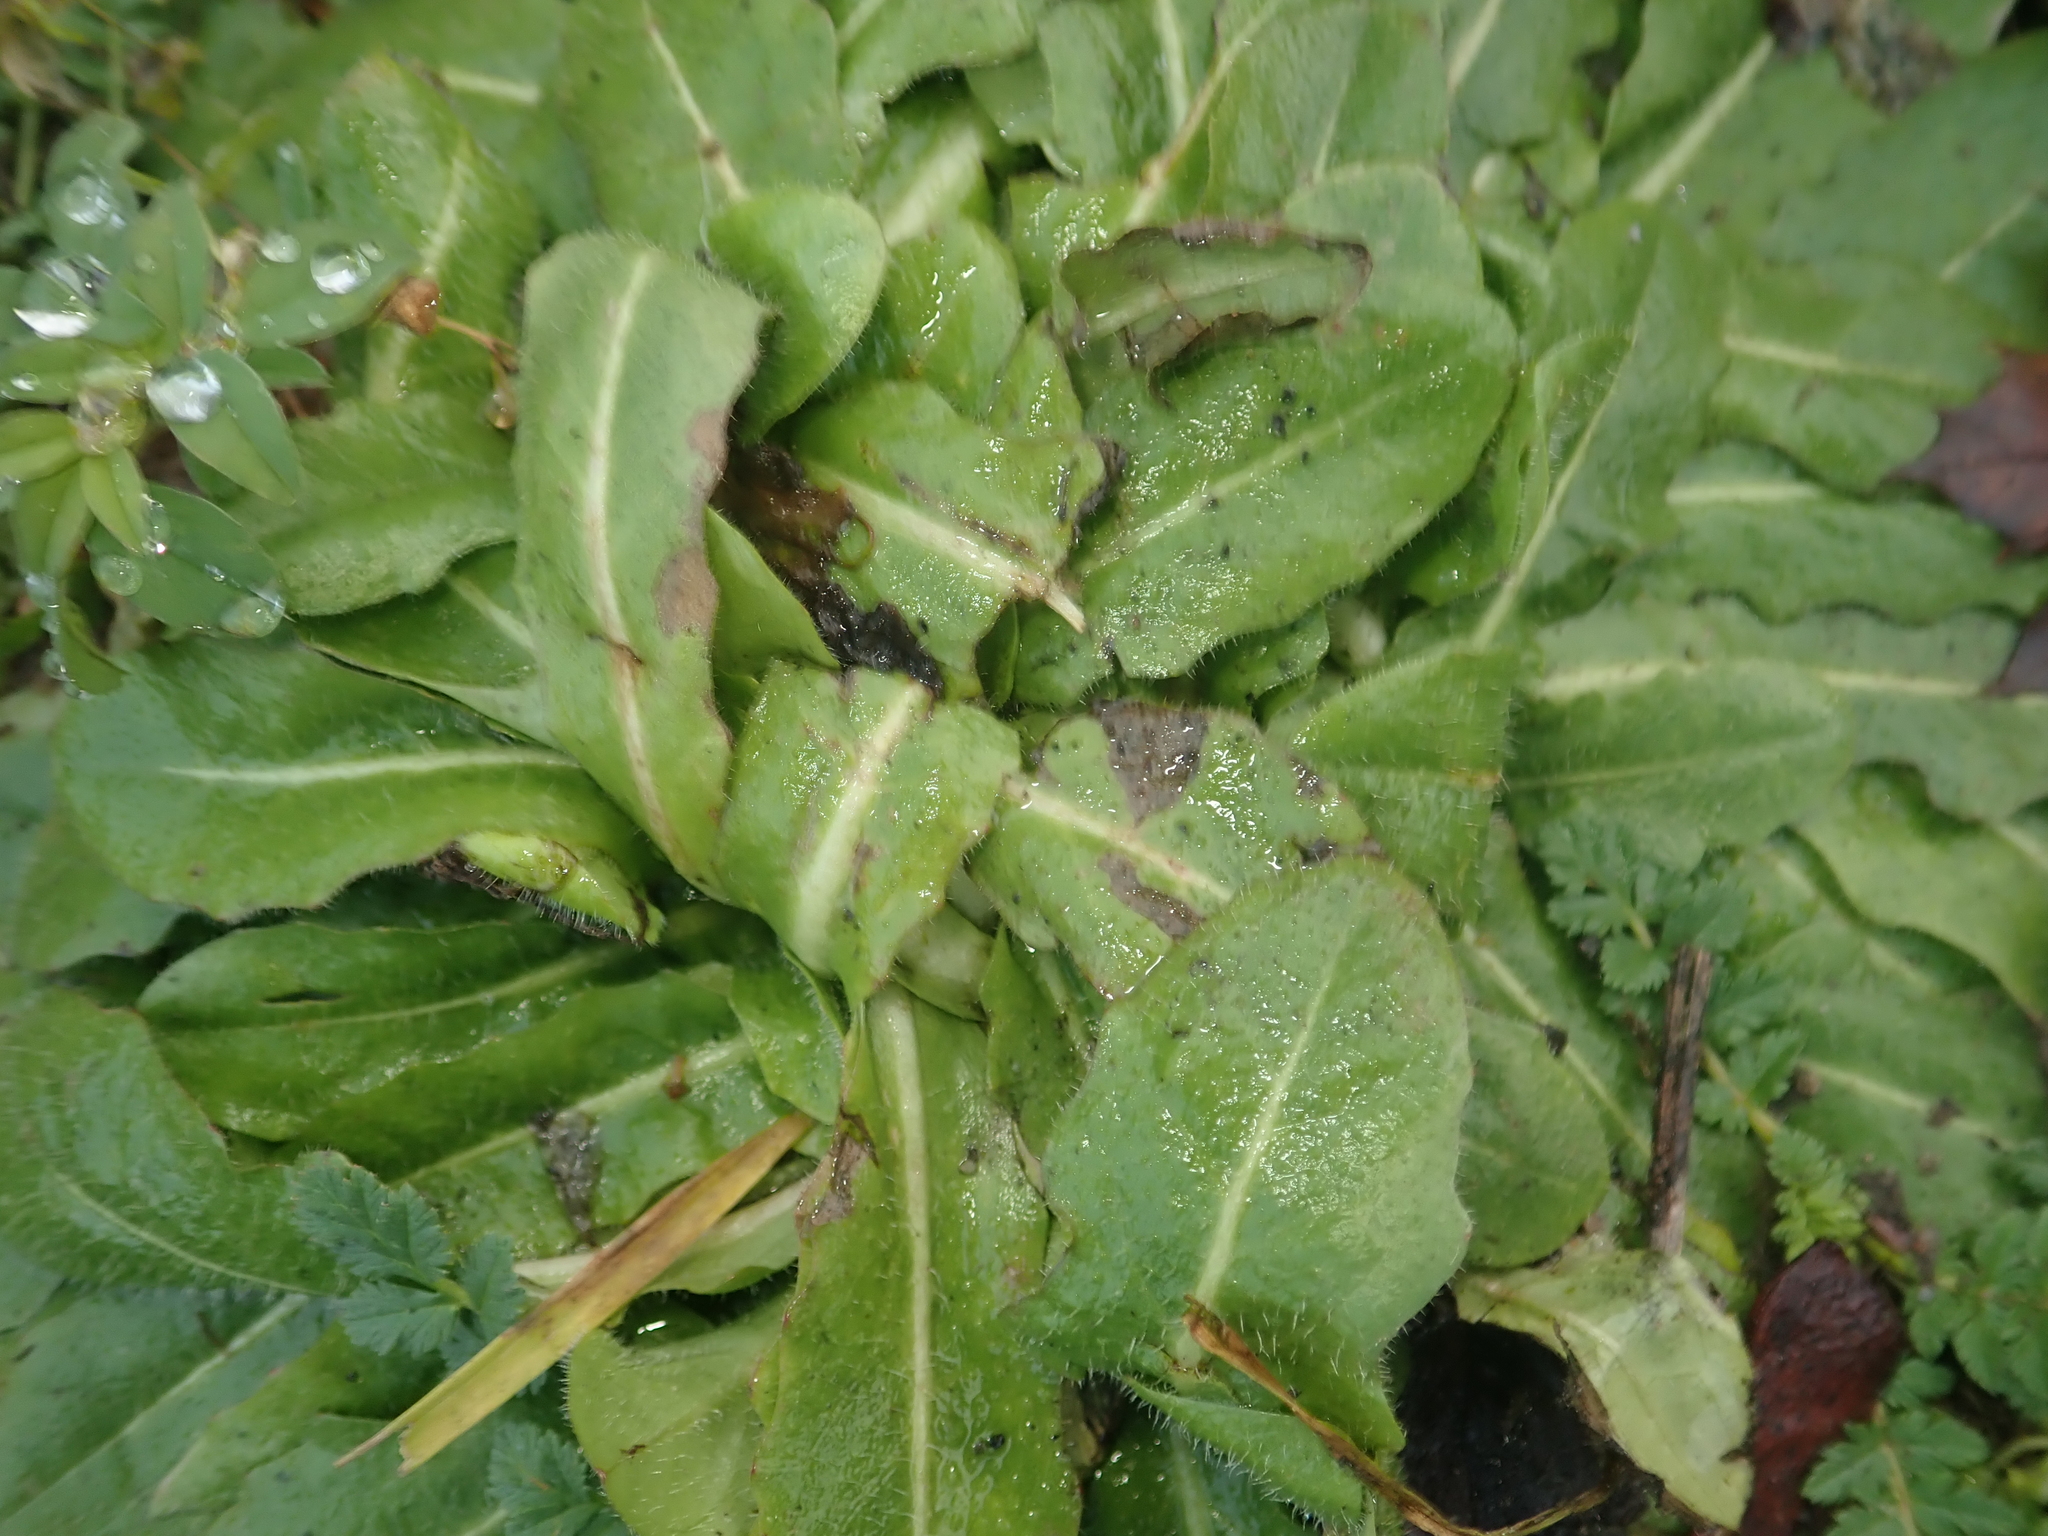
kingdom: Plantae
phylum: Tracheophyta
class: Magnoliopsida
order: Asterales
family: Asteraceae
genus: Hypochaeris
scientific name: Hypochaeris radicata
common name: Flatweed
